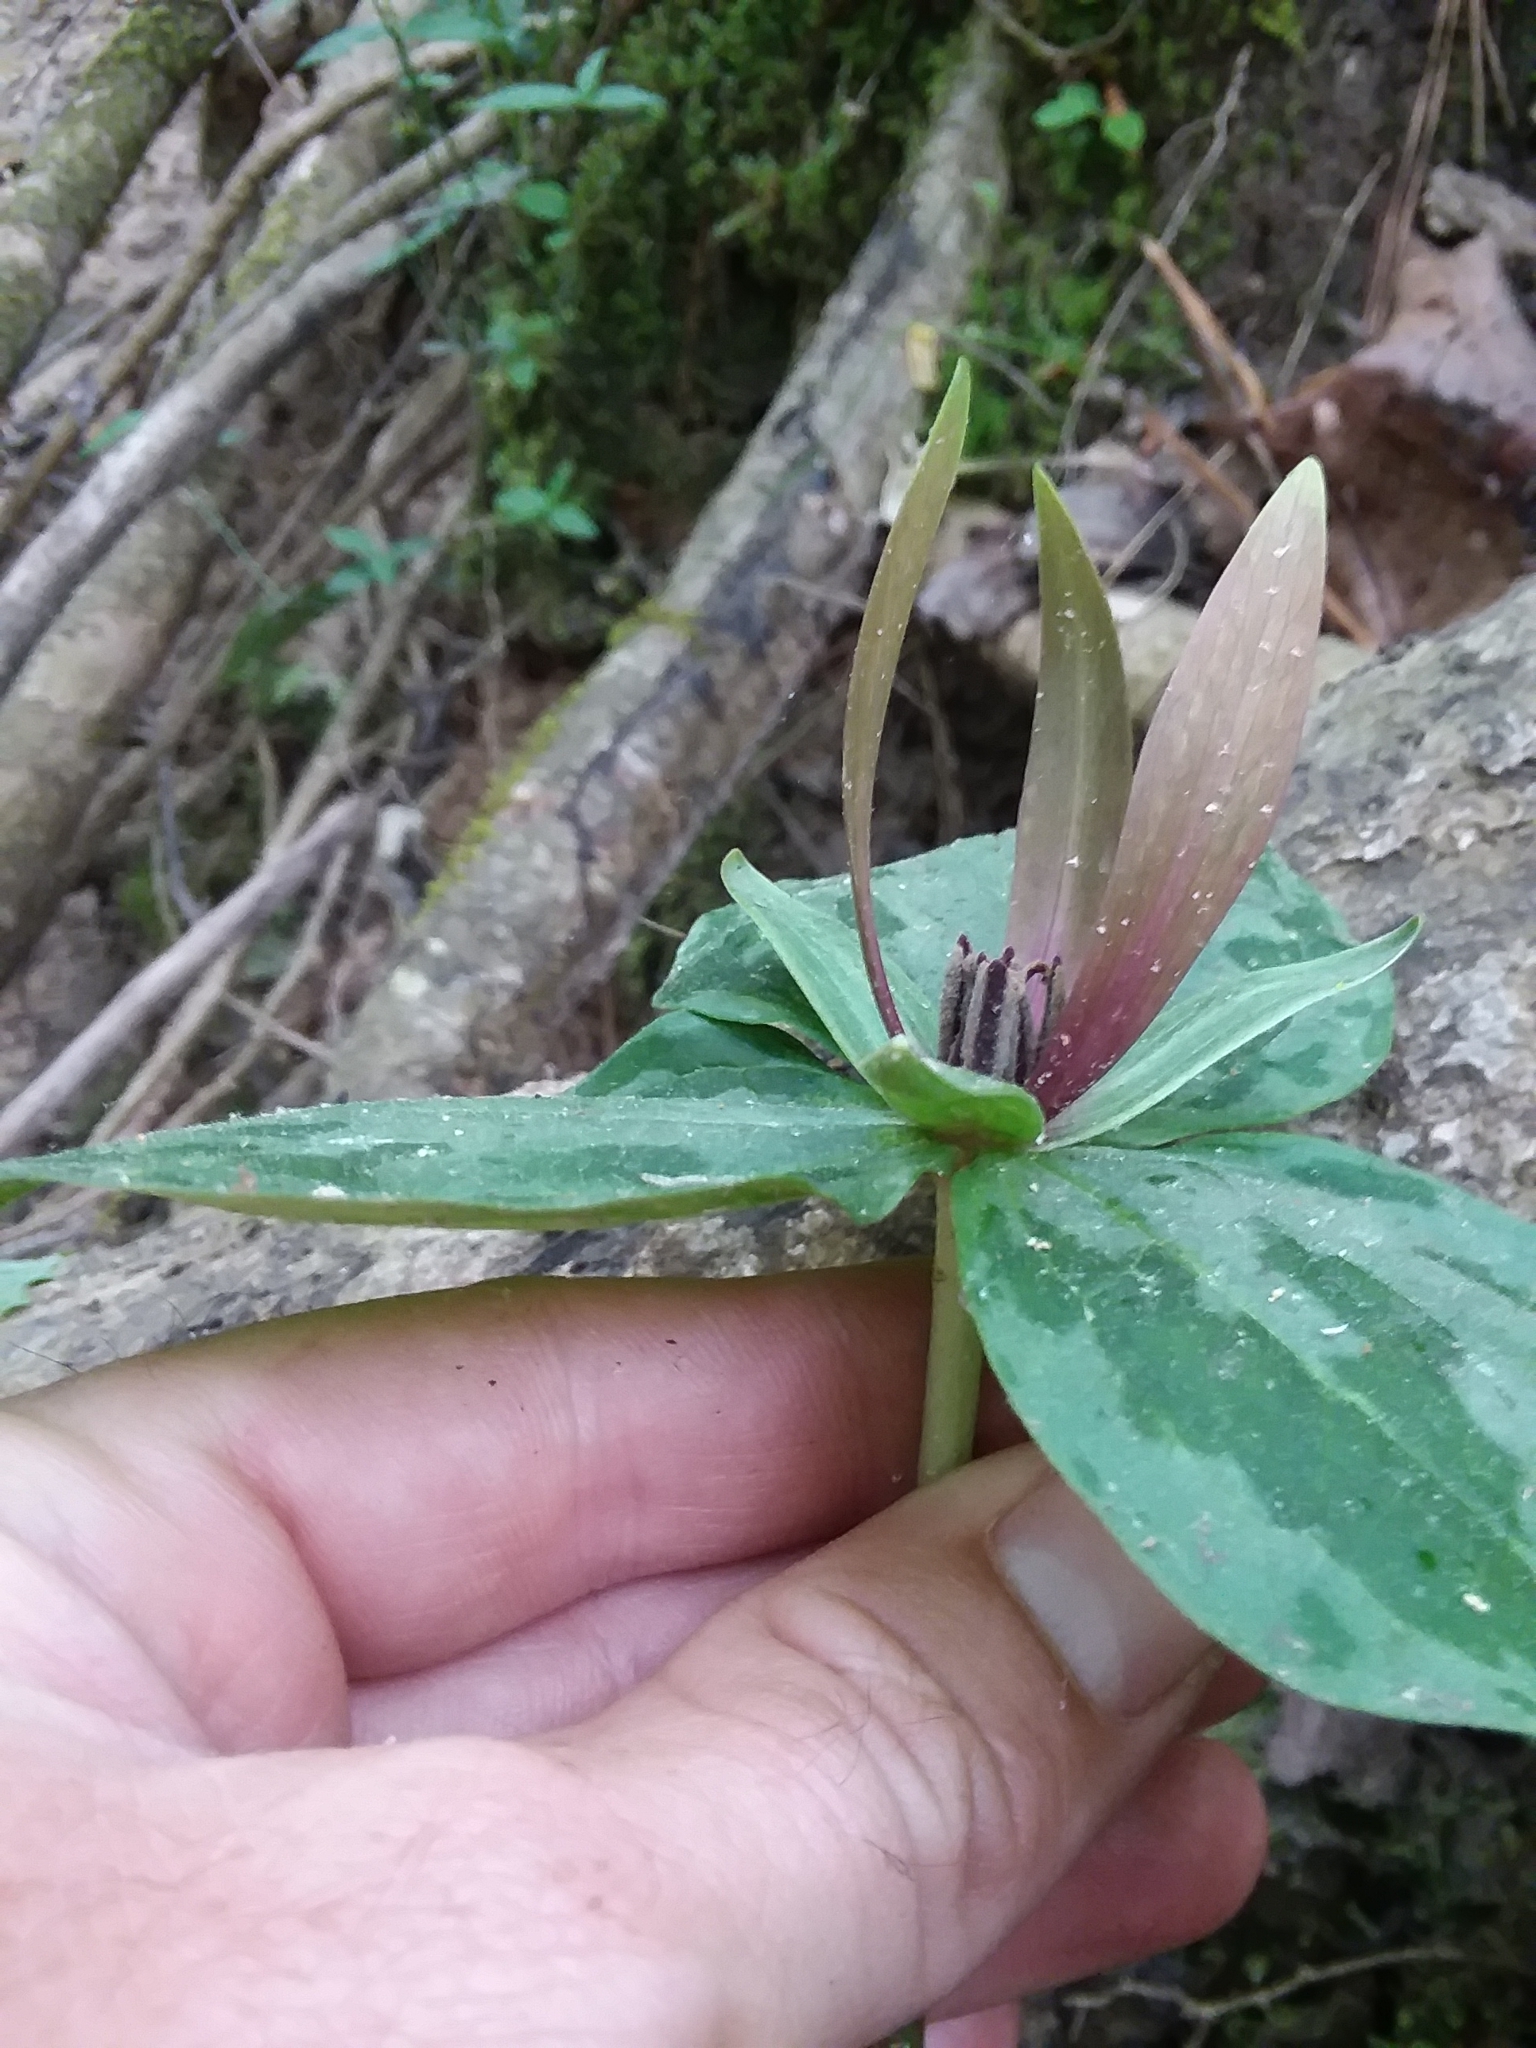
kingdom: Plantae
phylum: Tracheophyta
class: Liliopsida
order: Liliales
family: Melanthiaceae
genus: Trillium
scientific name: Trillium cuneatum
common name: Cuneate trillium
